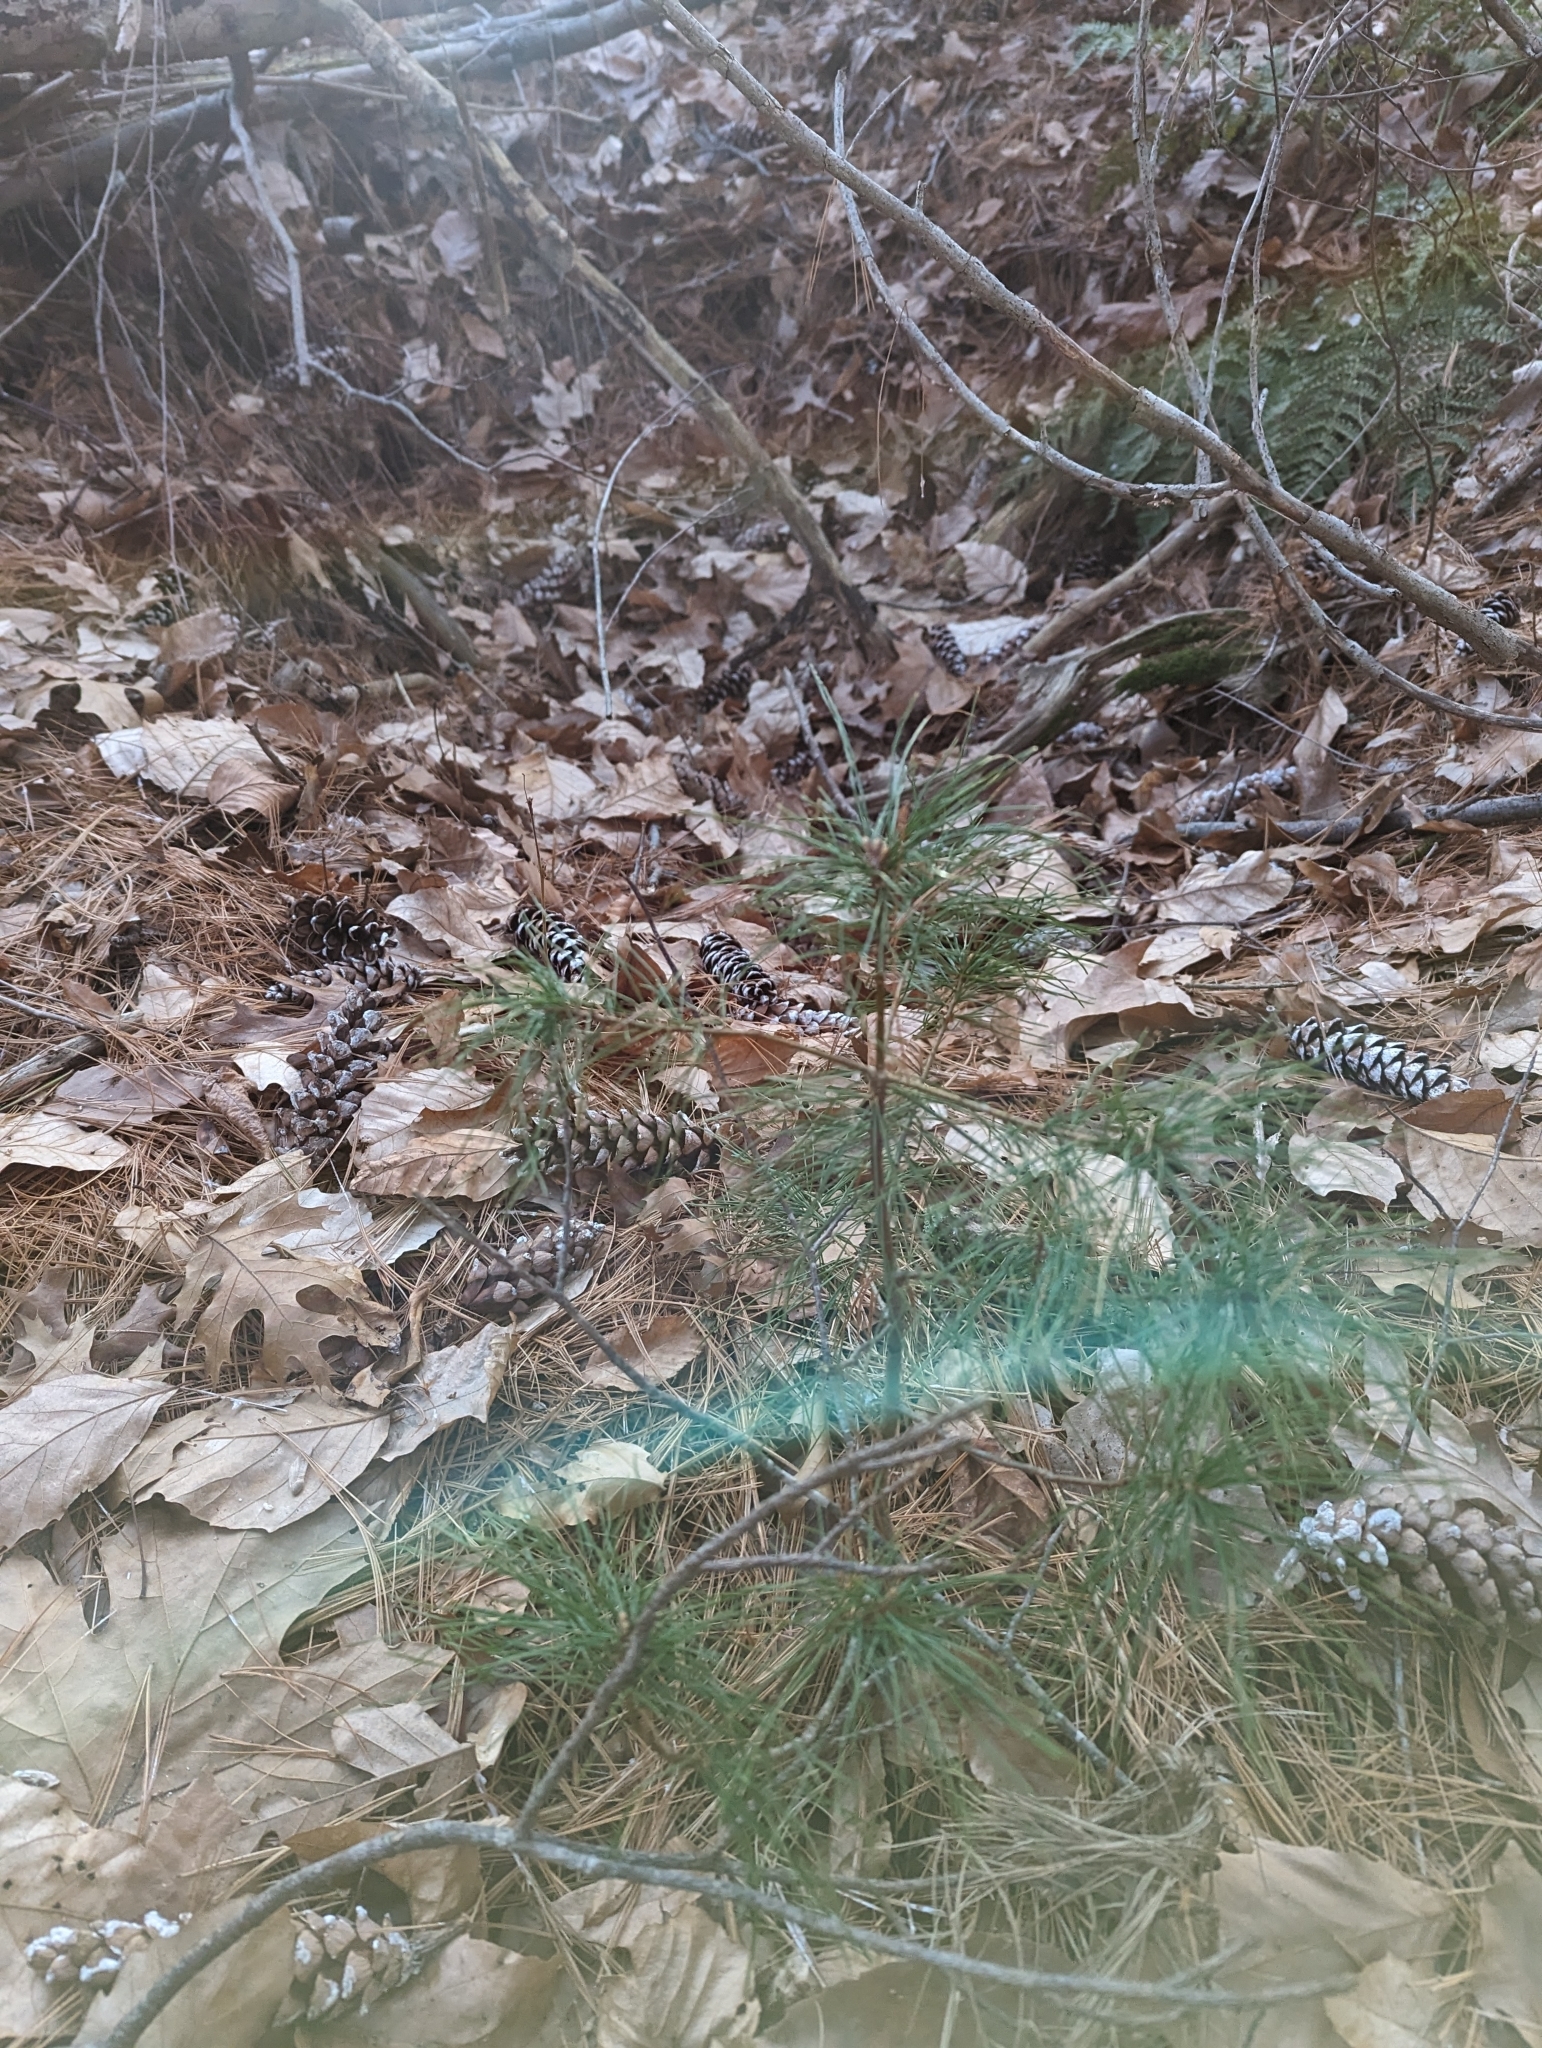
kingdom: Plantae
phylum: Tracheophyta
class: Pinopsida
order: Pinales
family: Pinaceae
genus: Pinus
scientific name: Pinus strobus
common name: Weymouth pine
